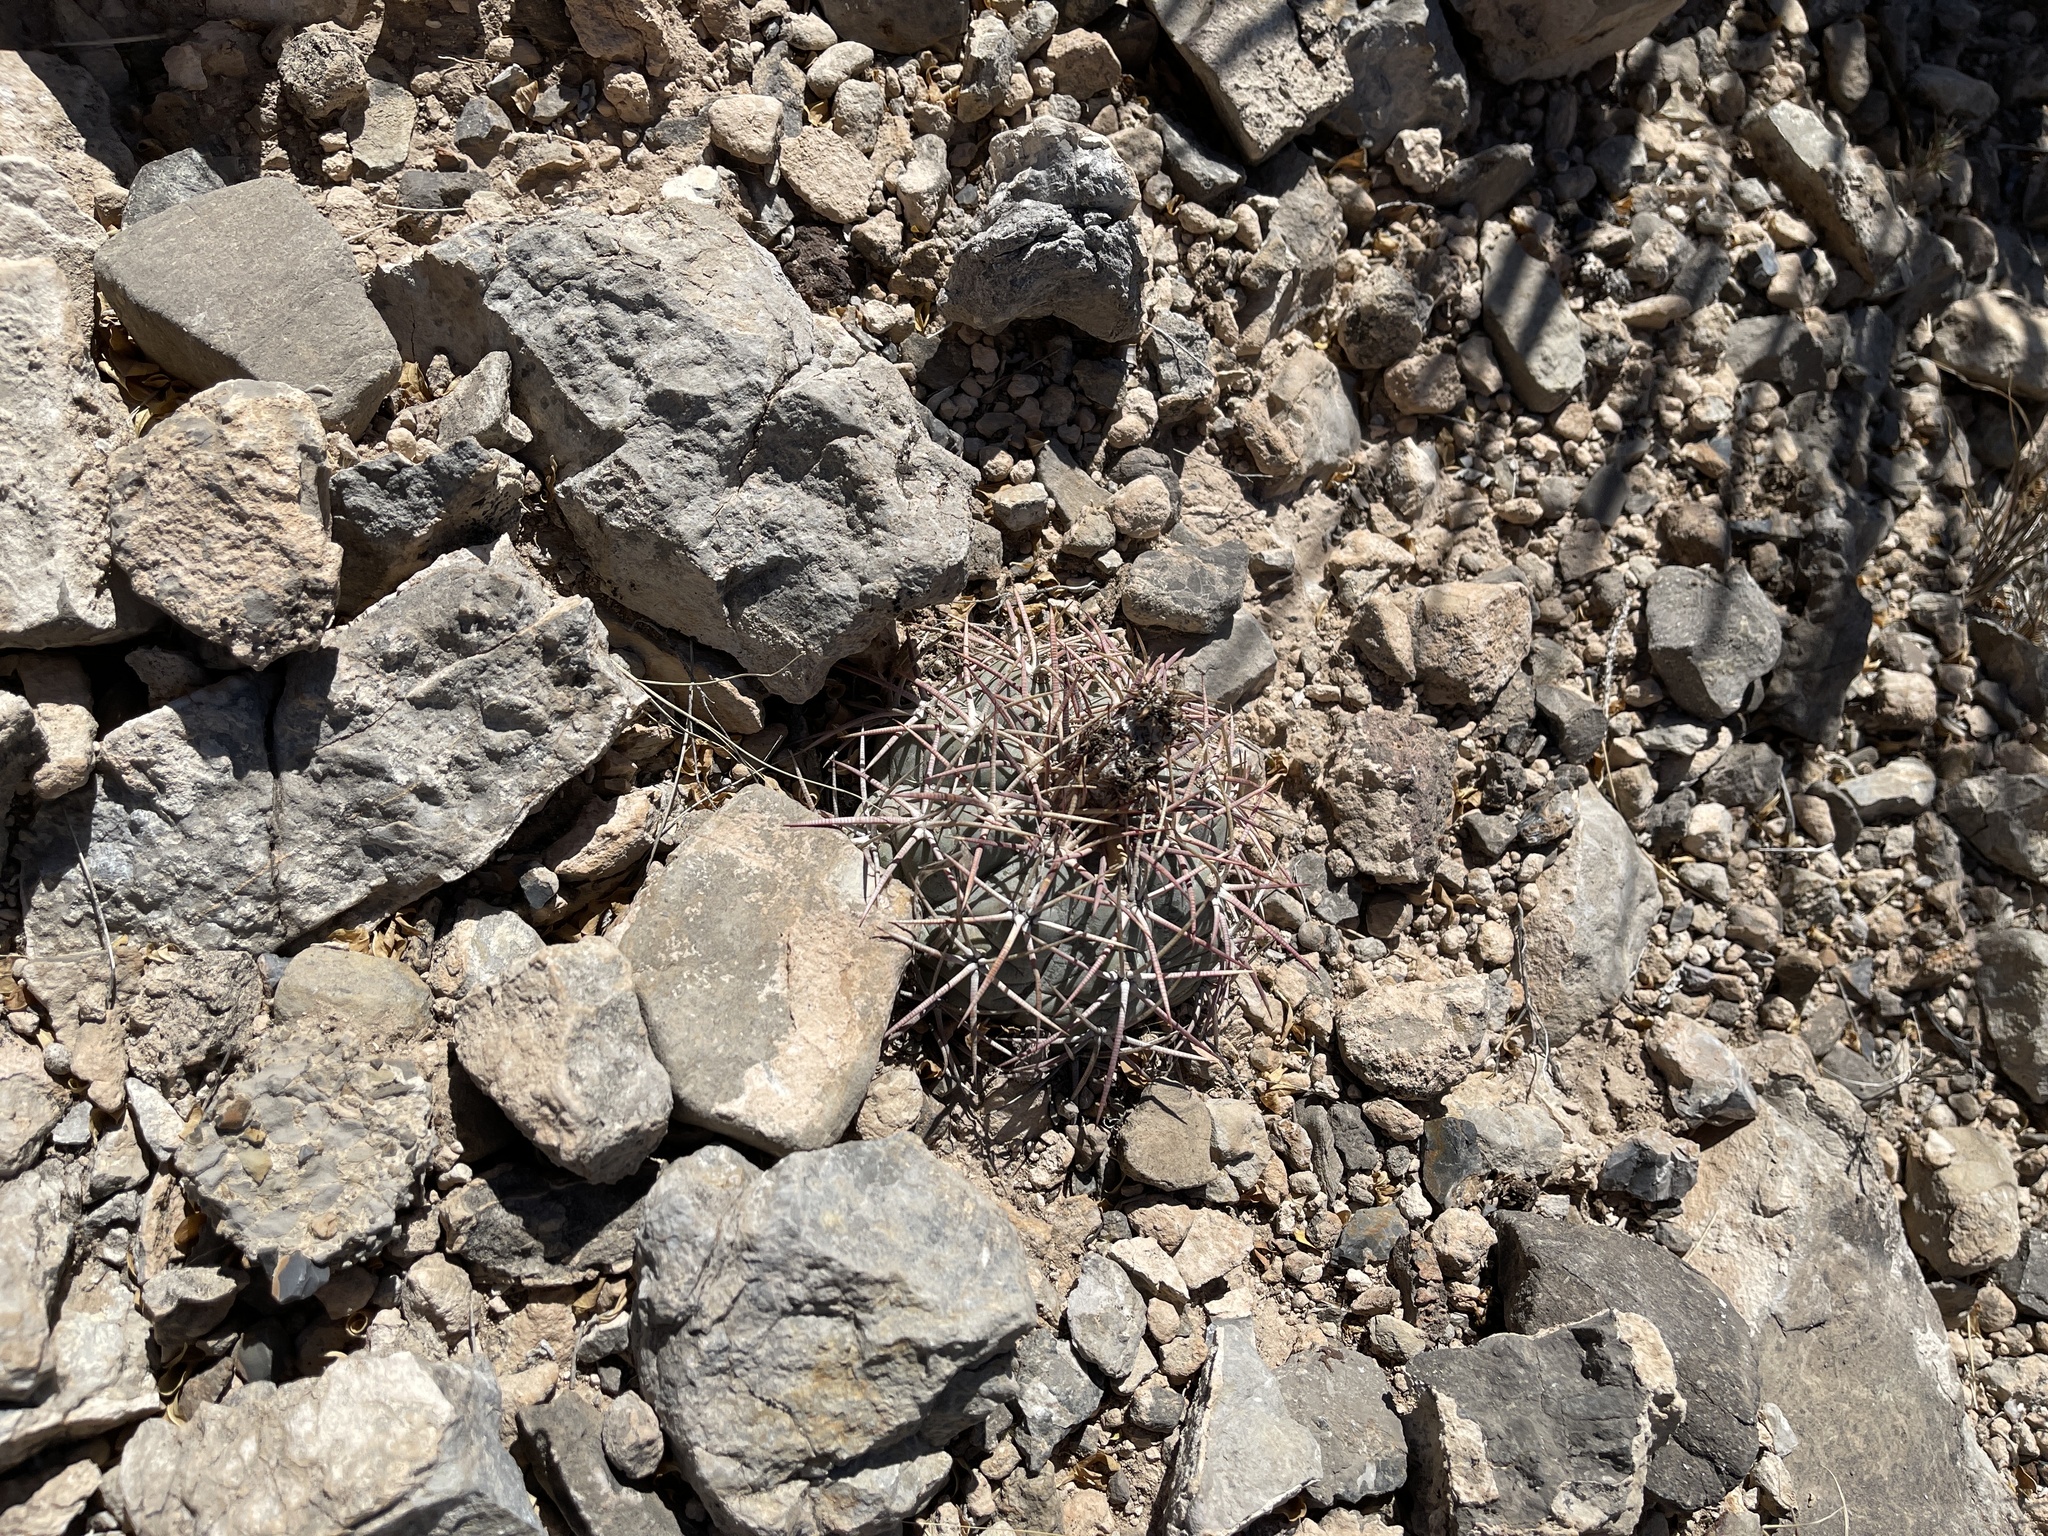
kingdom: Plantae
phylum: Tracheophyta
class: Magnoliopsida
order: Caryophyllales
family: Cactaceae
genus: Echinocactus
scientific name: Echinocactus horizonthalonius
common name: Devilshead
